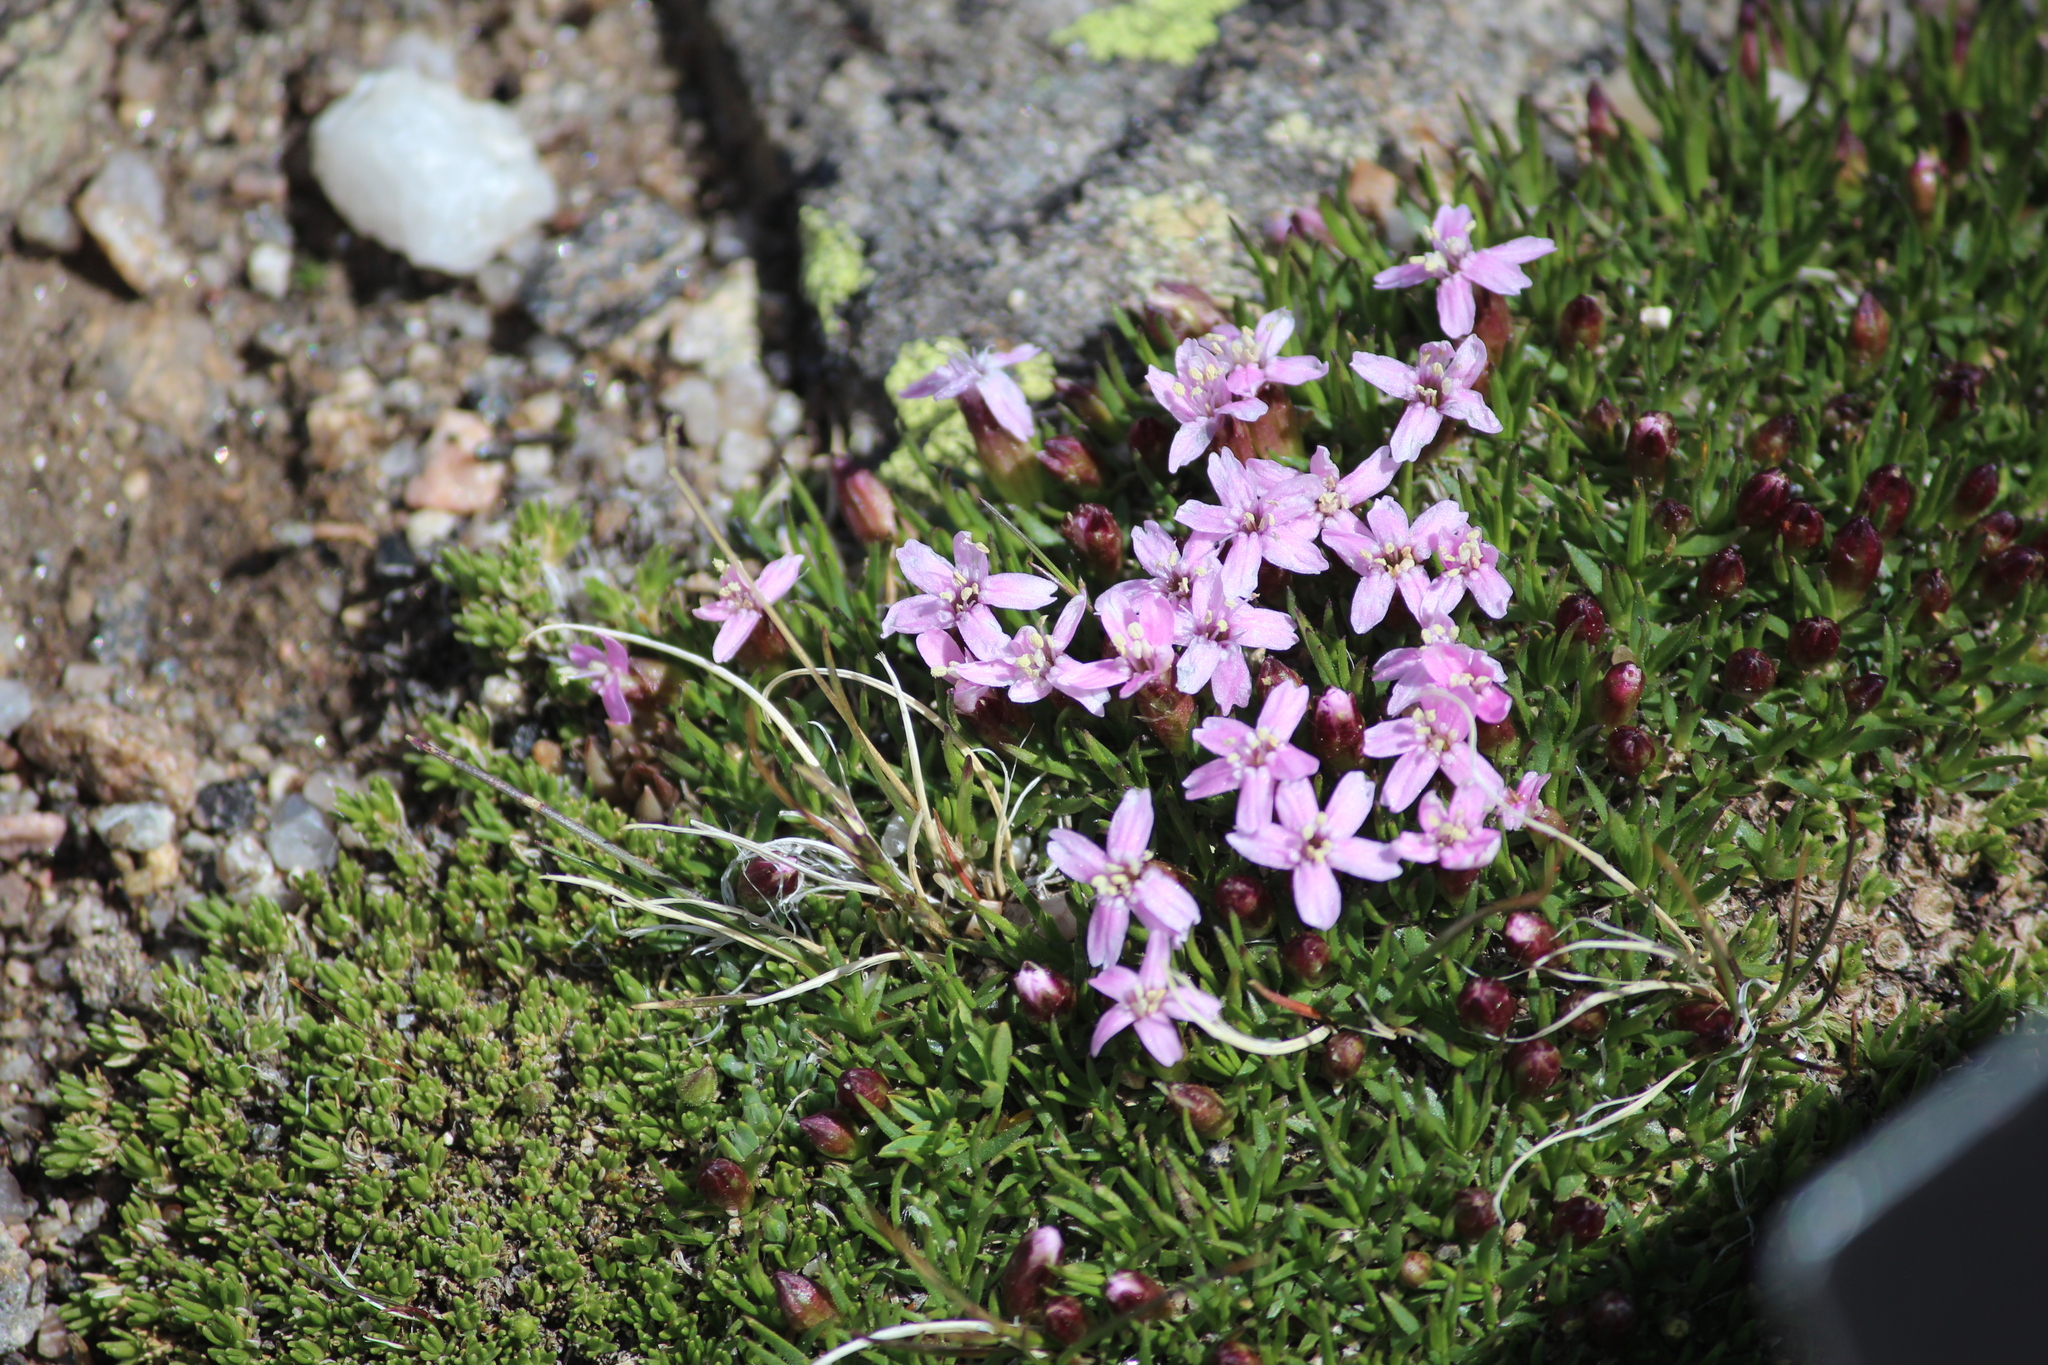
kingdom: Plantae
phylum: Tracheophyta
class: Magnoliopsida
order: Caryophyllales
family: Caryophyllaceae
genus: Silene
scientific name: Silene acaulis
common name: Moss campion
